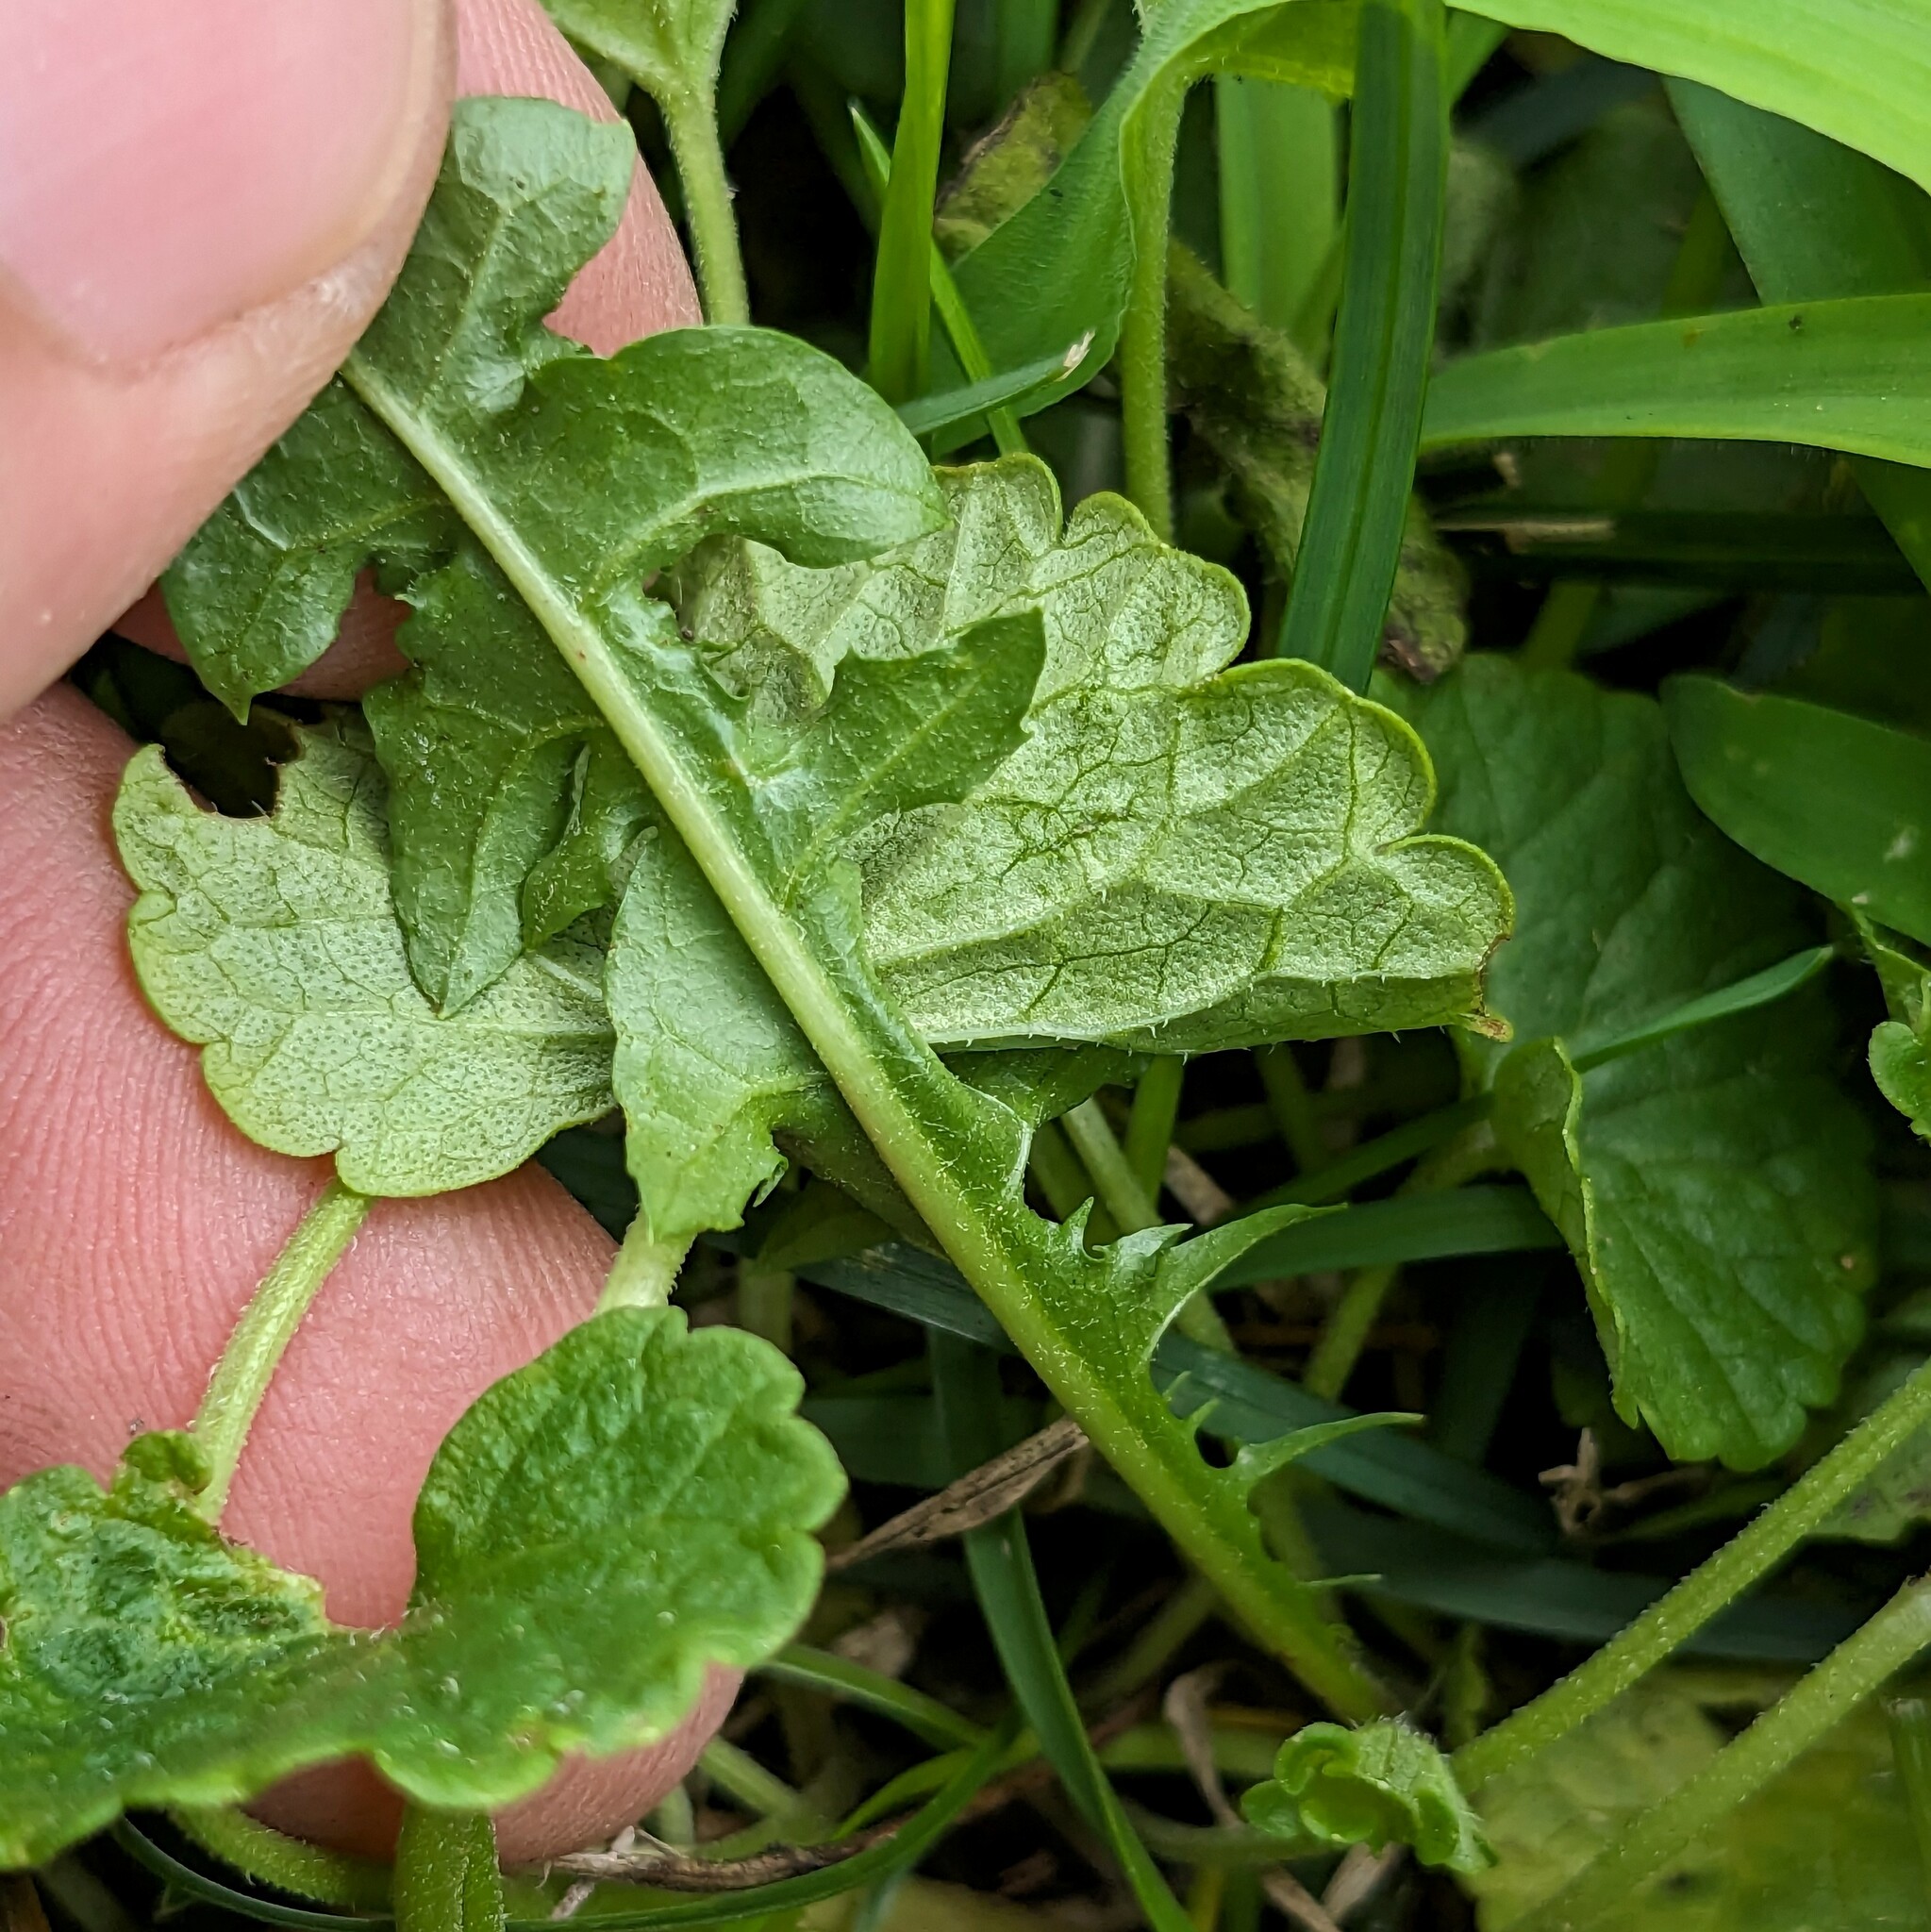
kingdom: Plantae
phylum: Tracheophyta
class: Magnoliopsida
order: Asterales
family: Asteraceae
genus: Taraxacum
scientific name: Taraxacum erythrospermum
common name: Rock dandelion
